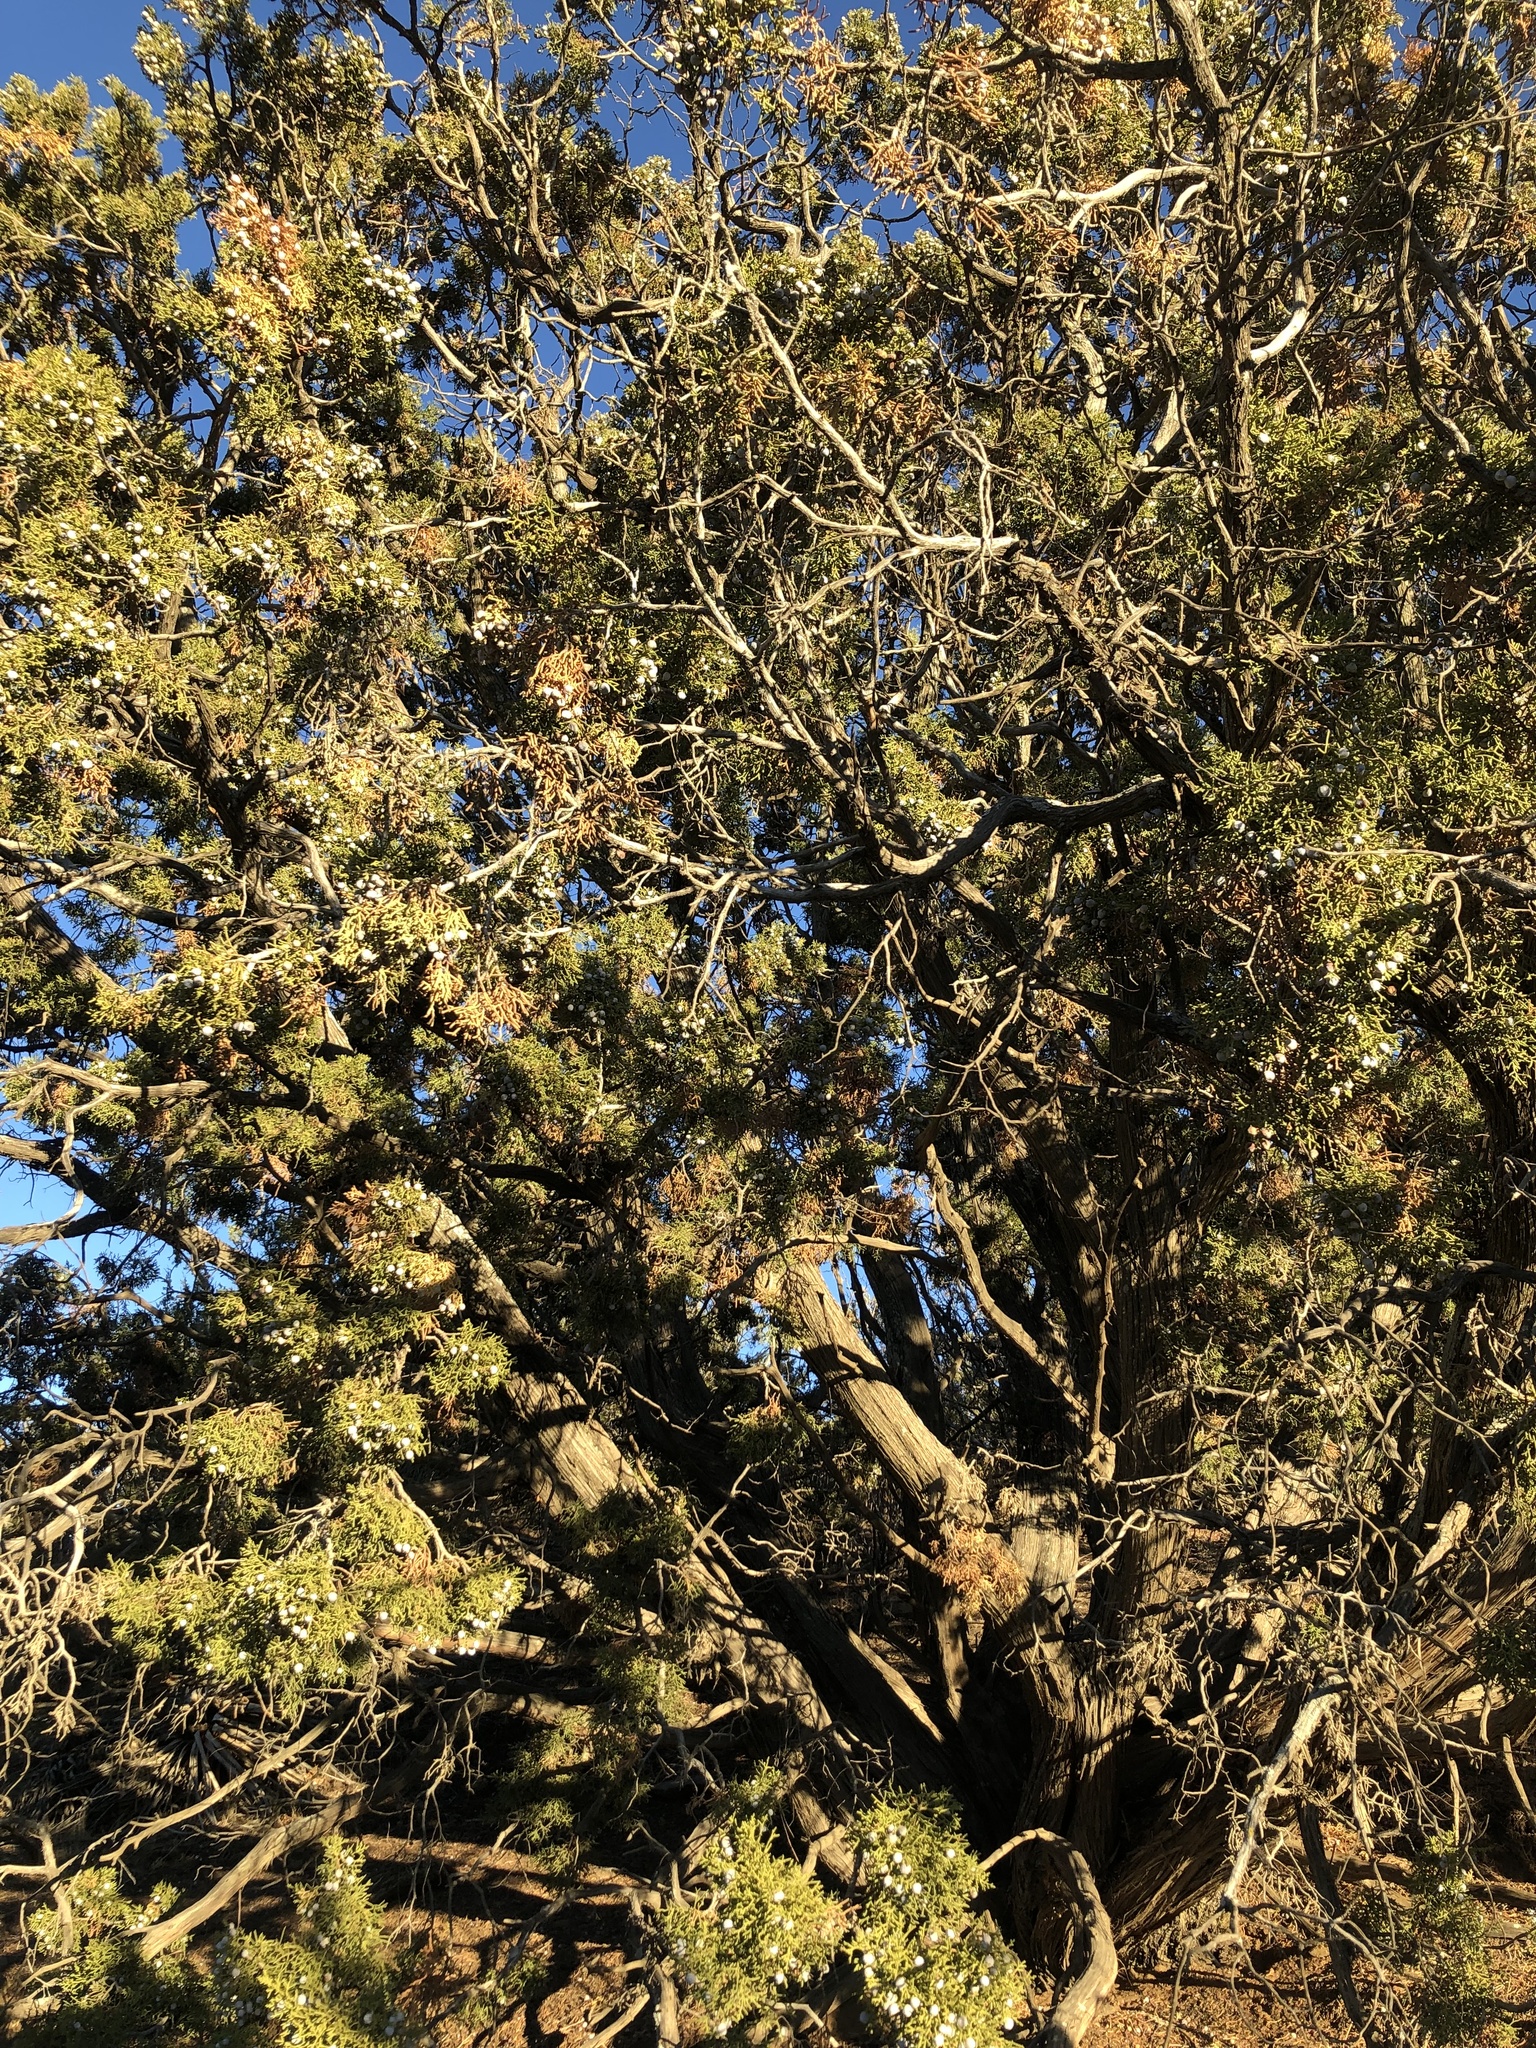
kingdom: Plantae
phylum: Tracheophyta
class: Pinopsida
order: Pinales
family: Cupressaceae
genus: Juniperus
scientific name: Juniperus californica
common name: California juniper
